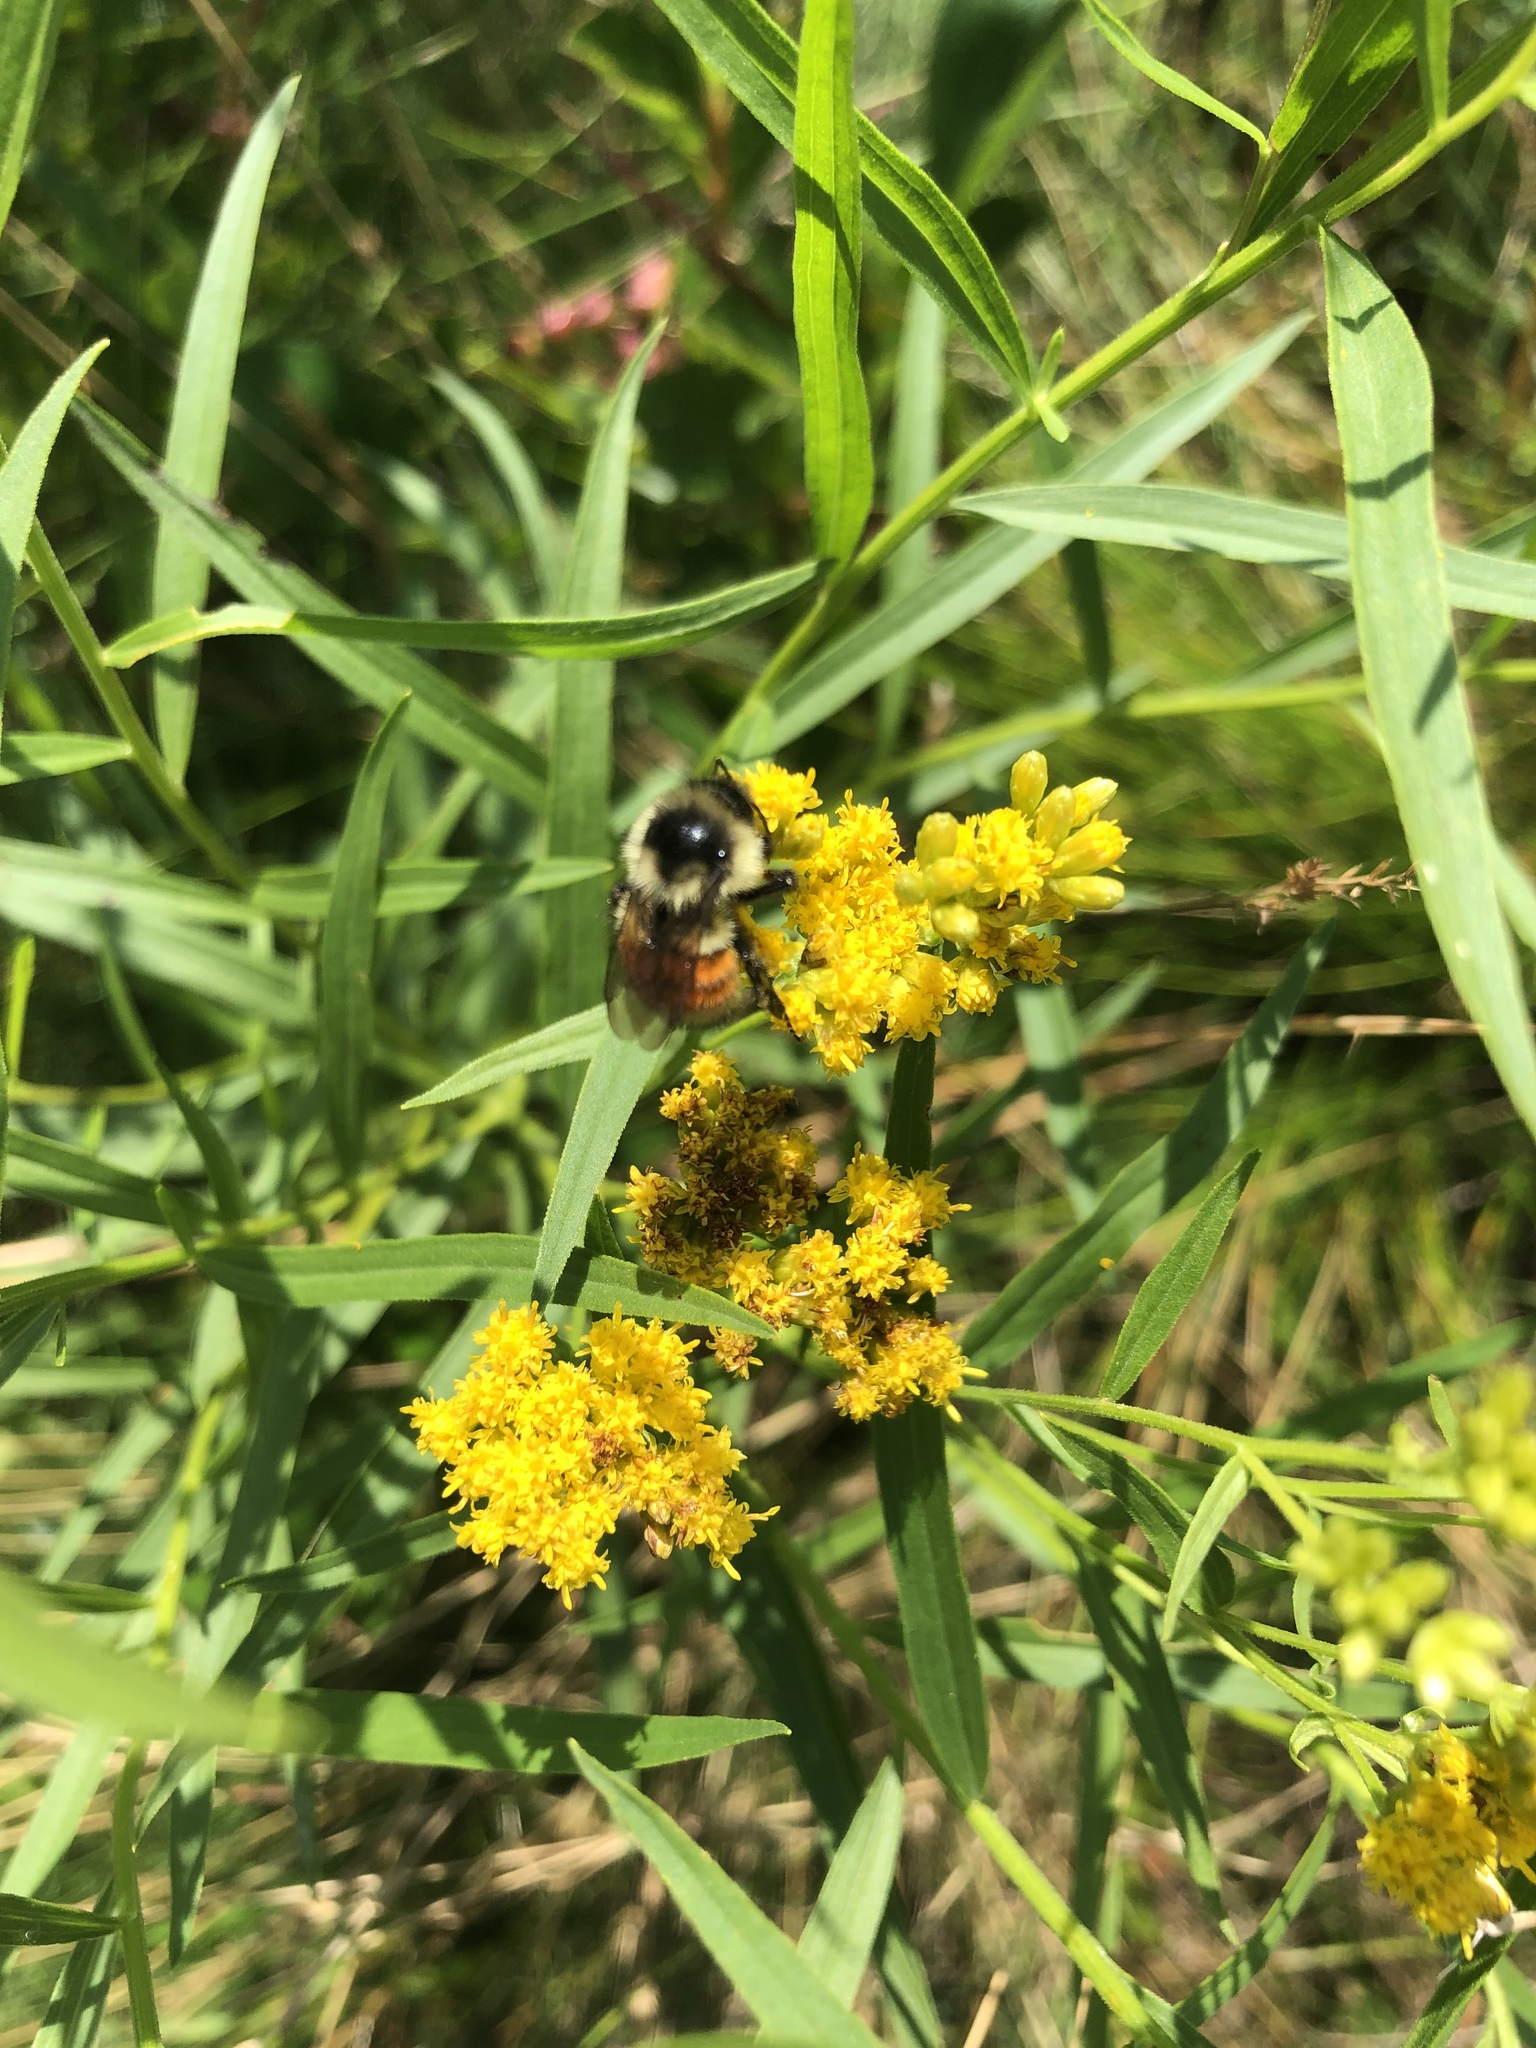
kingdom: Animalia
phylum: Arthropoda
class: Insecta
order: Hymenoptera
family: Apidae
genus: Bombus
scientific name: Bombus ternarius
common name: Tri-colored bumble bee
